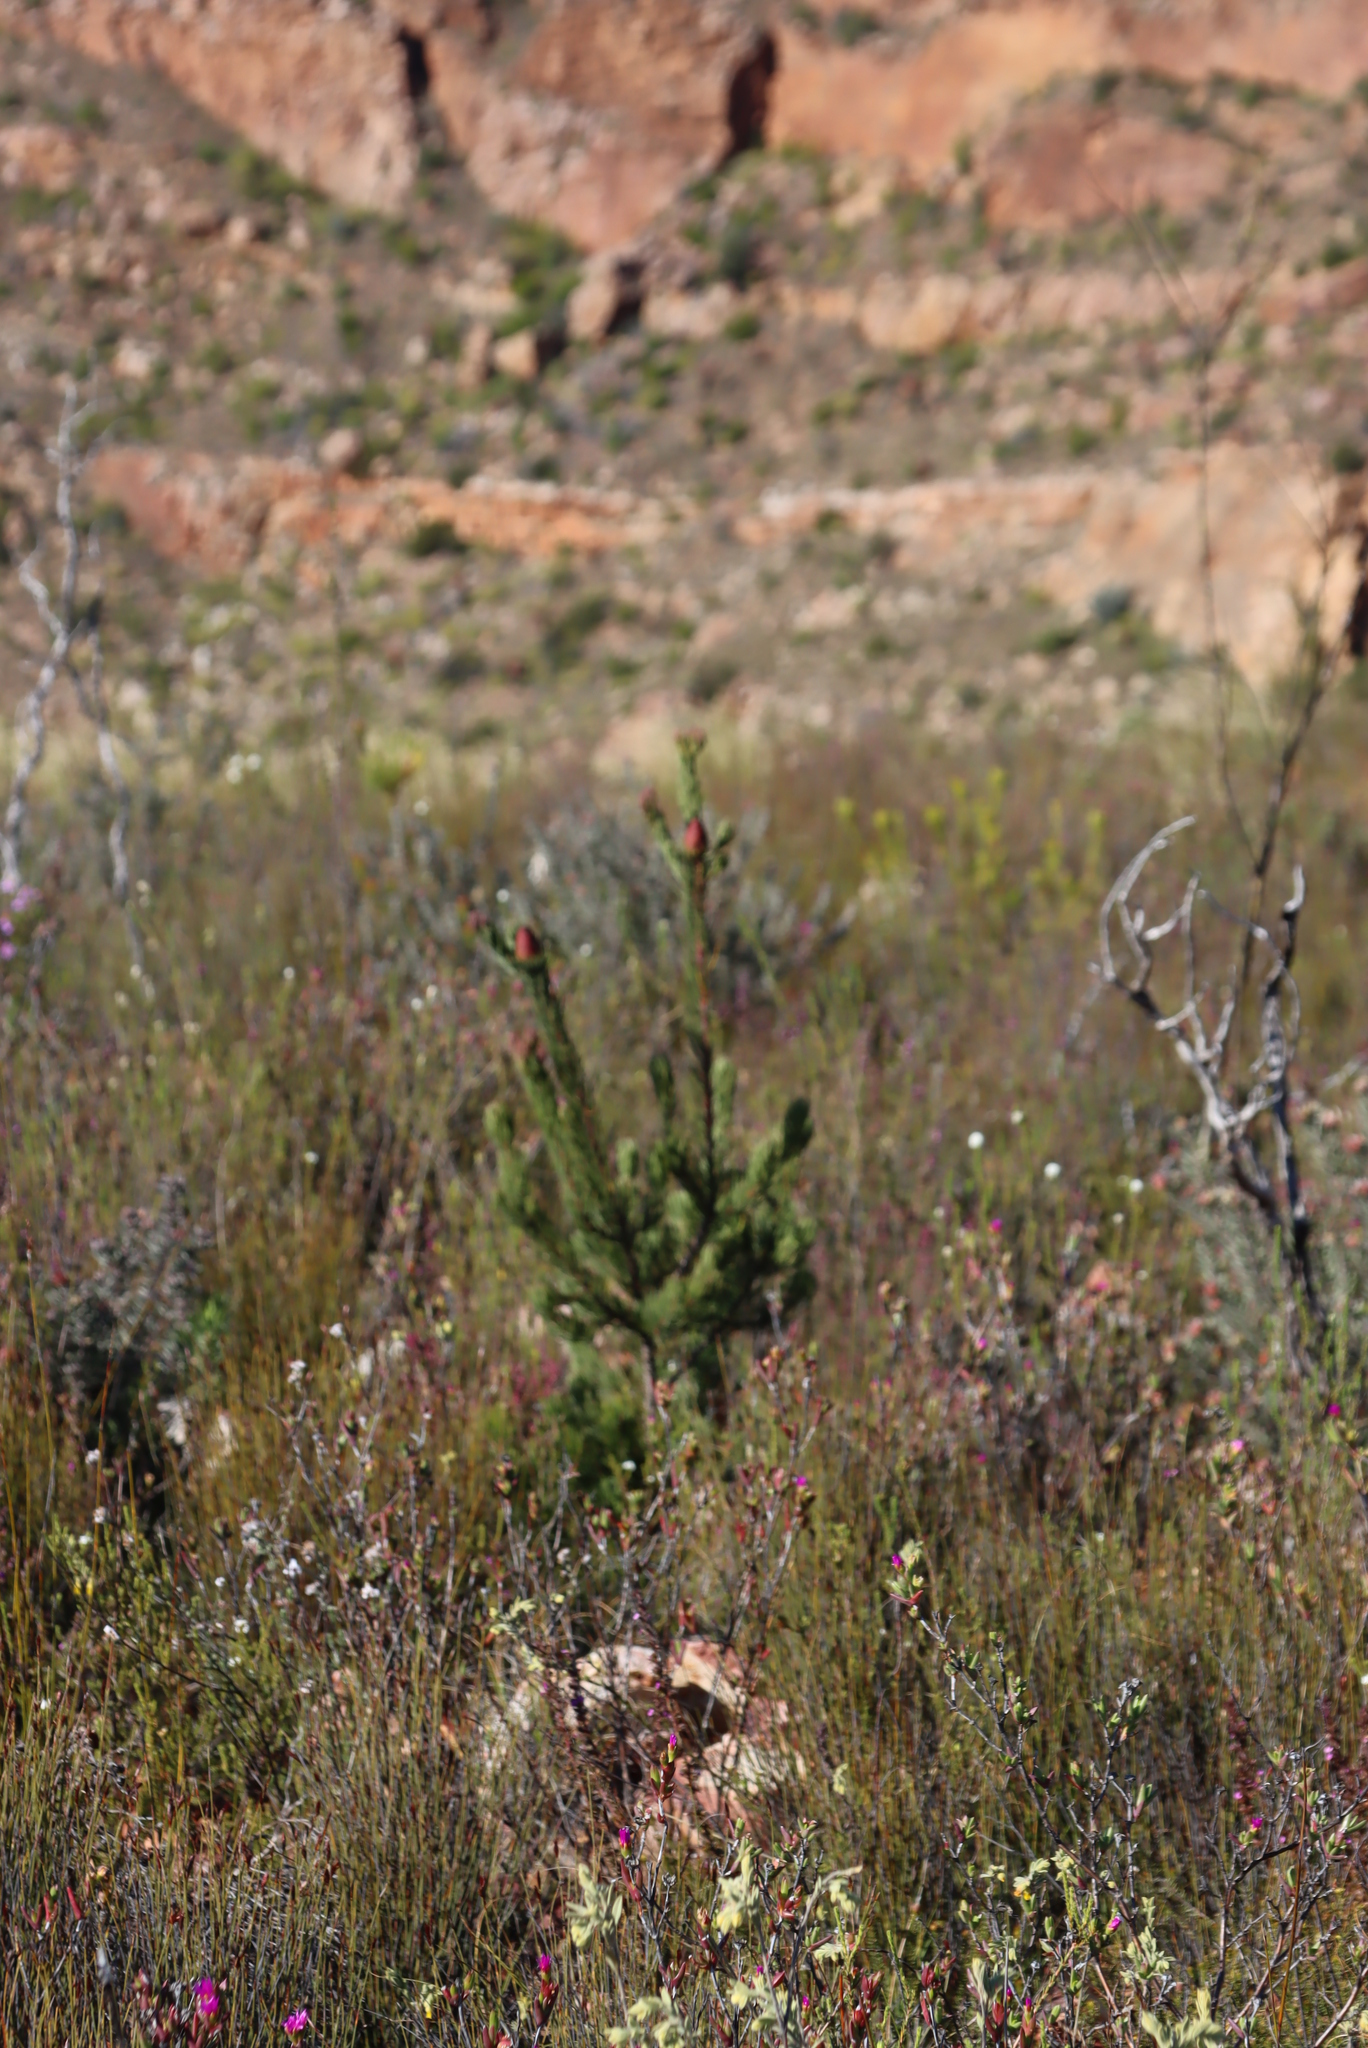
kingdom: Plantae
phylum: Tracheophyta
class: Magnoliopsida
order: Proteales
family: Proteaceae
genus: Leucadendron
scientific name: Leucadendron nobile
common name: Karoo conebush
